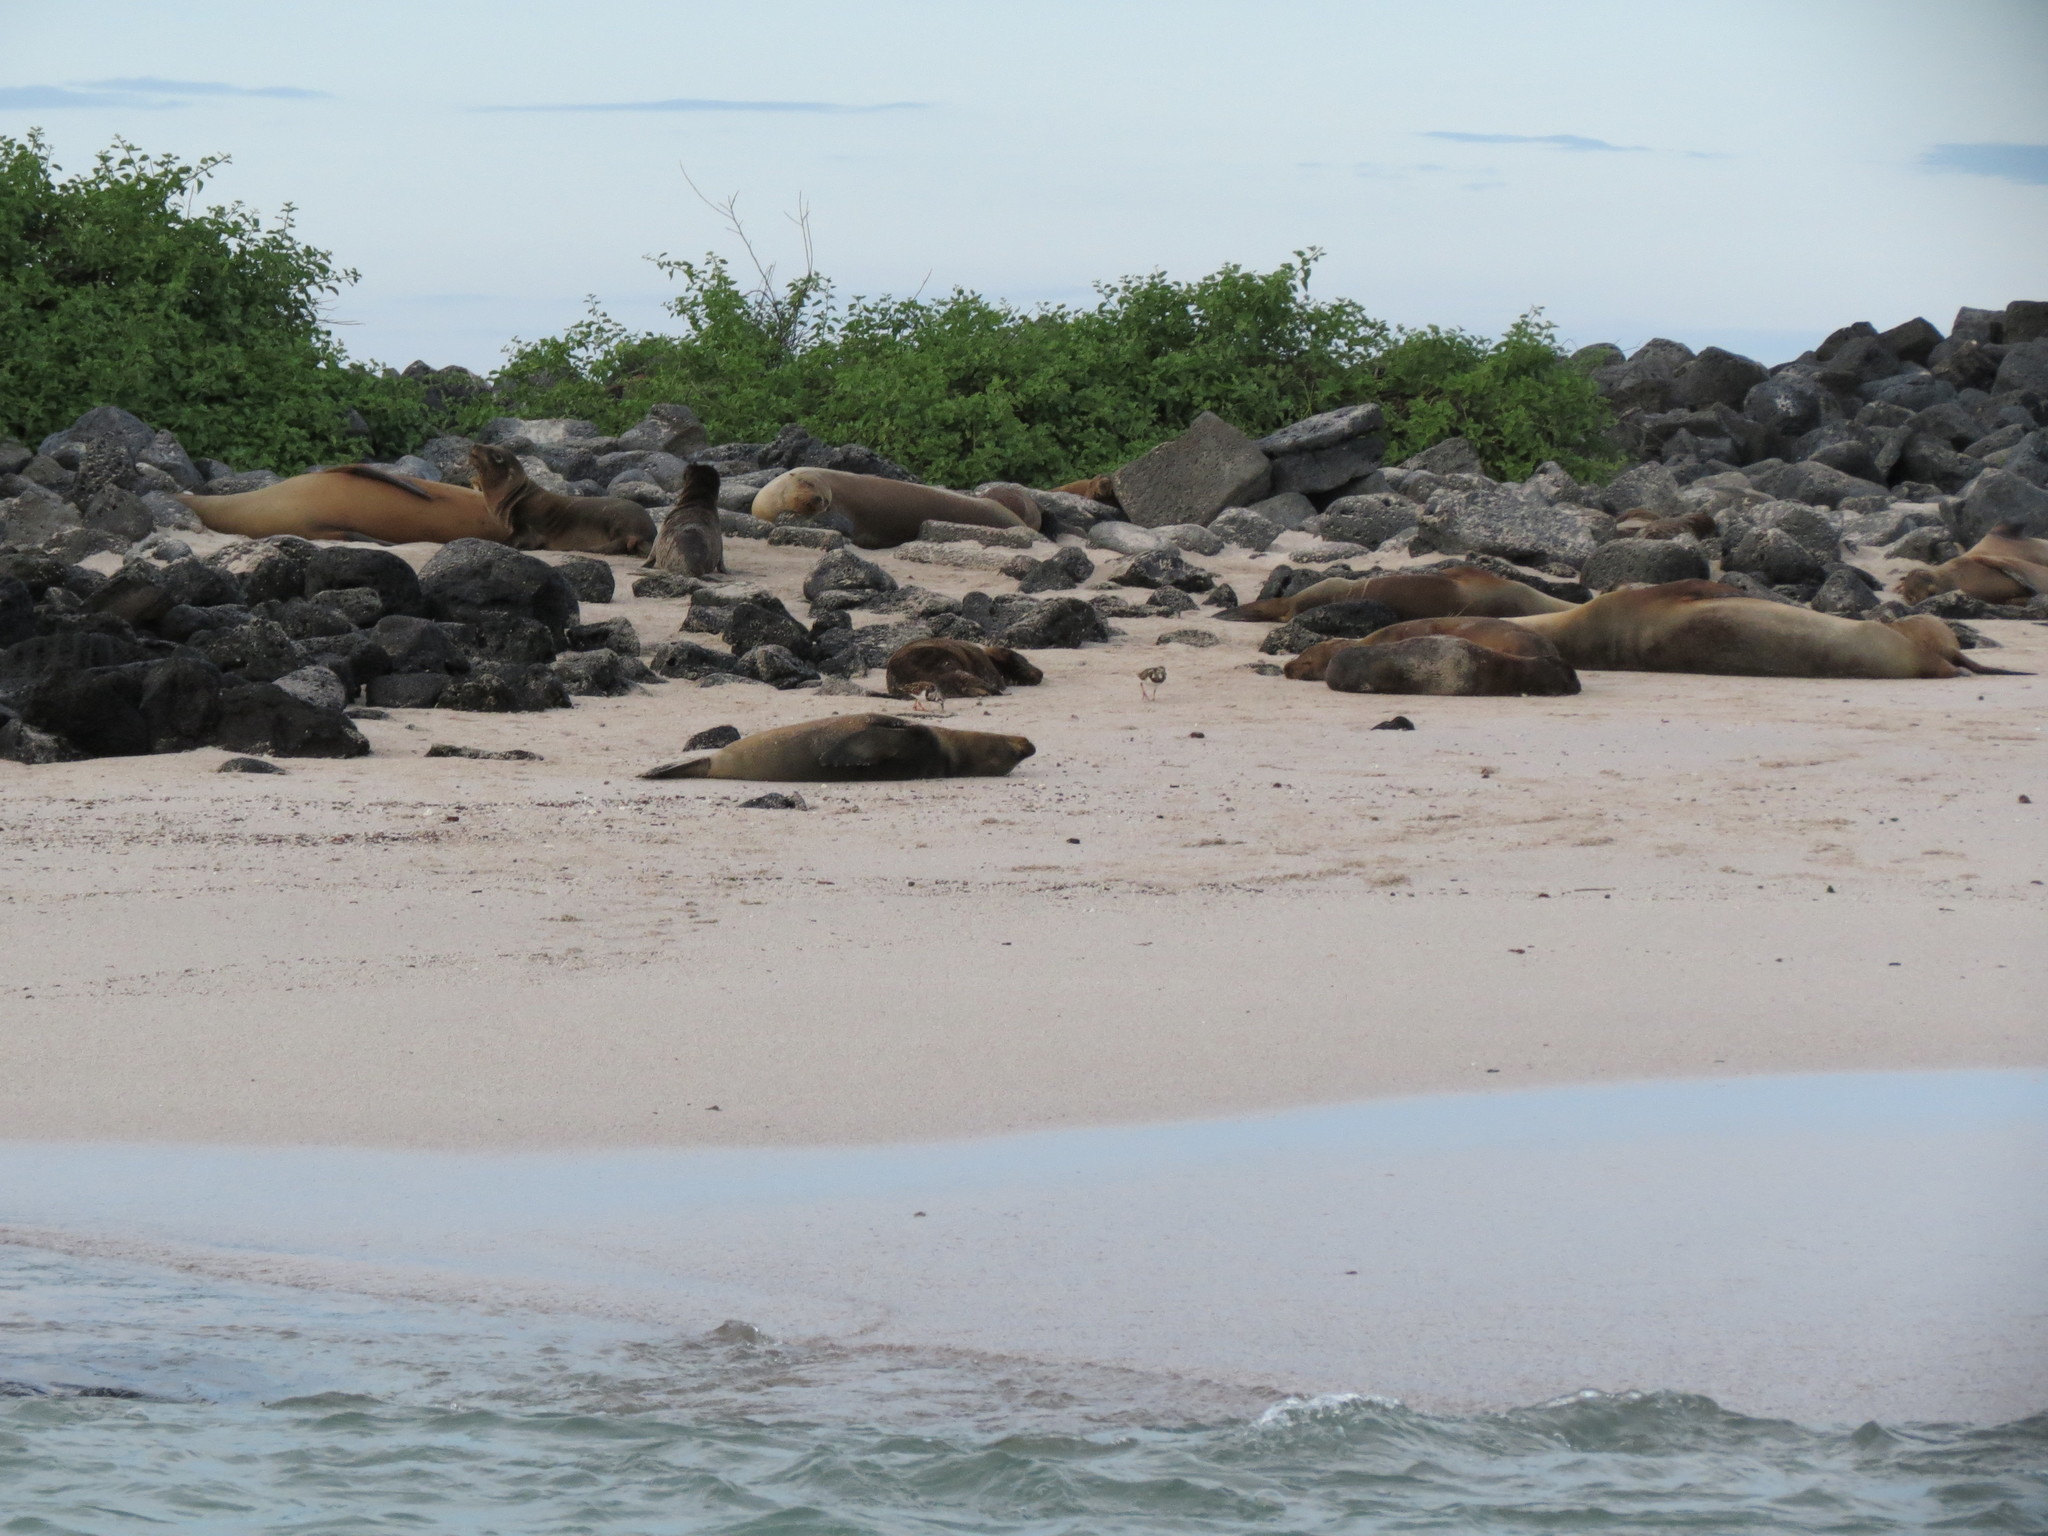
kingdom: Animalia
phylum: Chordata
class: Mammalia
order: Carnivora
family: Otariidae
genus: Zalophus
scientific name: Zalophus wollebaeki
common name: Galapagos sea lion
